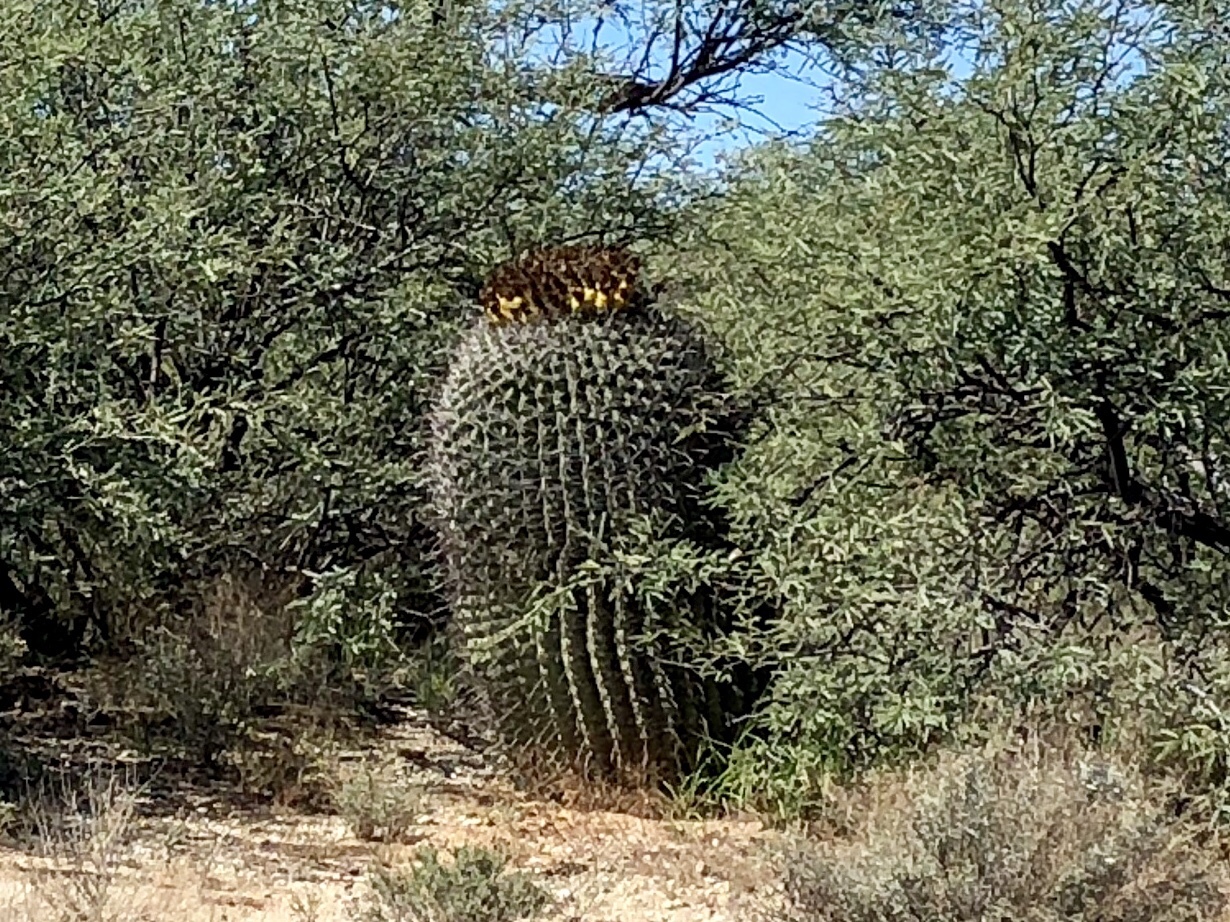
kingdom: Plantae
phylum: Tracheophyta
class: Magnoliopsida
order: Caryophyllales
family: Cactaceae
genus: Ferocactus
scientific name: Ferocactus wislizeni
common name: Candy barrel cactus
